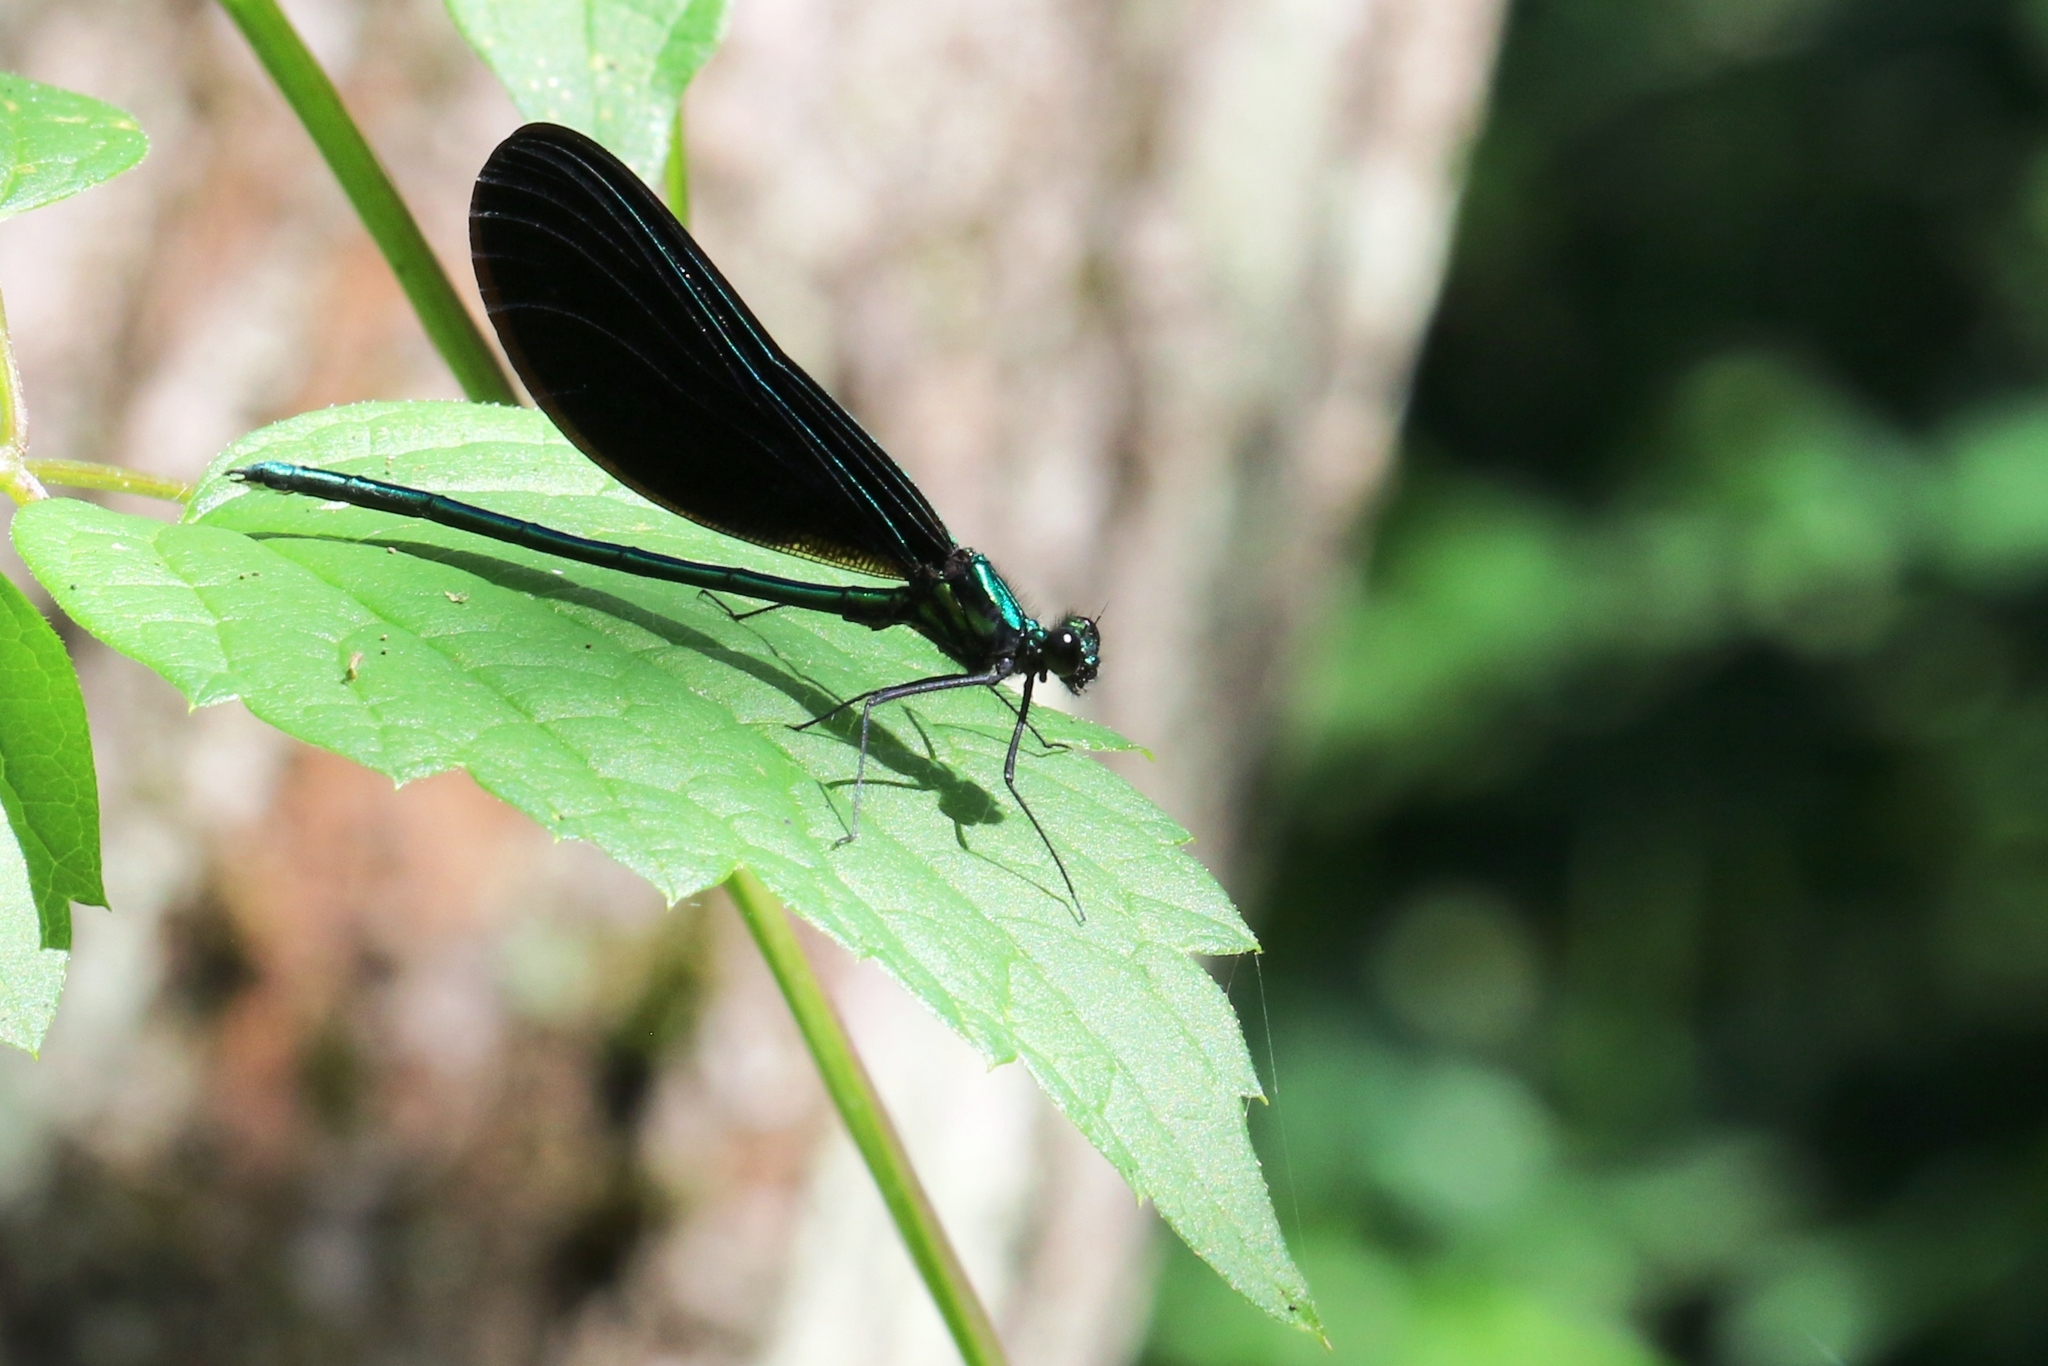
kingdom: Animalia
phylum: Arthropoda
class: Insecta
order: Odonata
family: Calopterygidae
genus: Calopteryx
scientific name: Calopteryx maculata
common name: Ebony jewelwing
